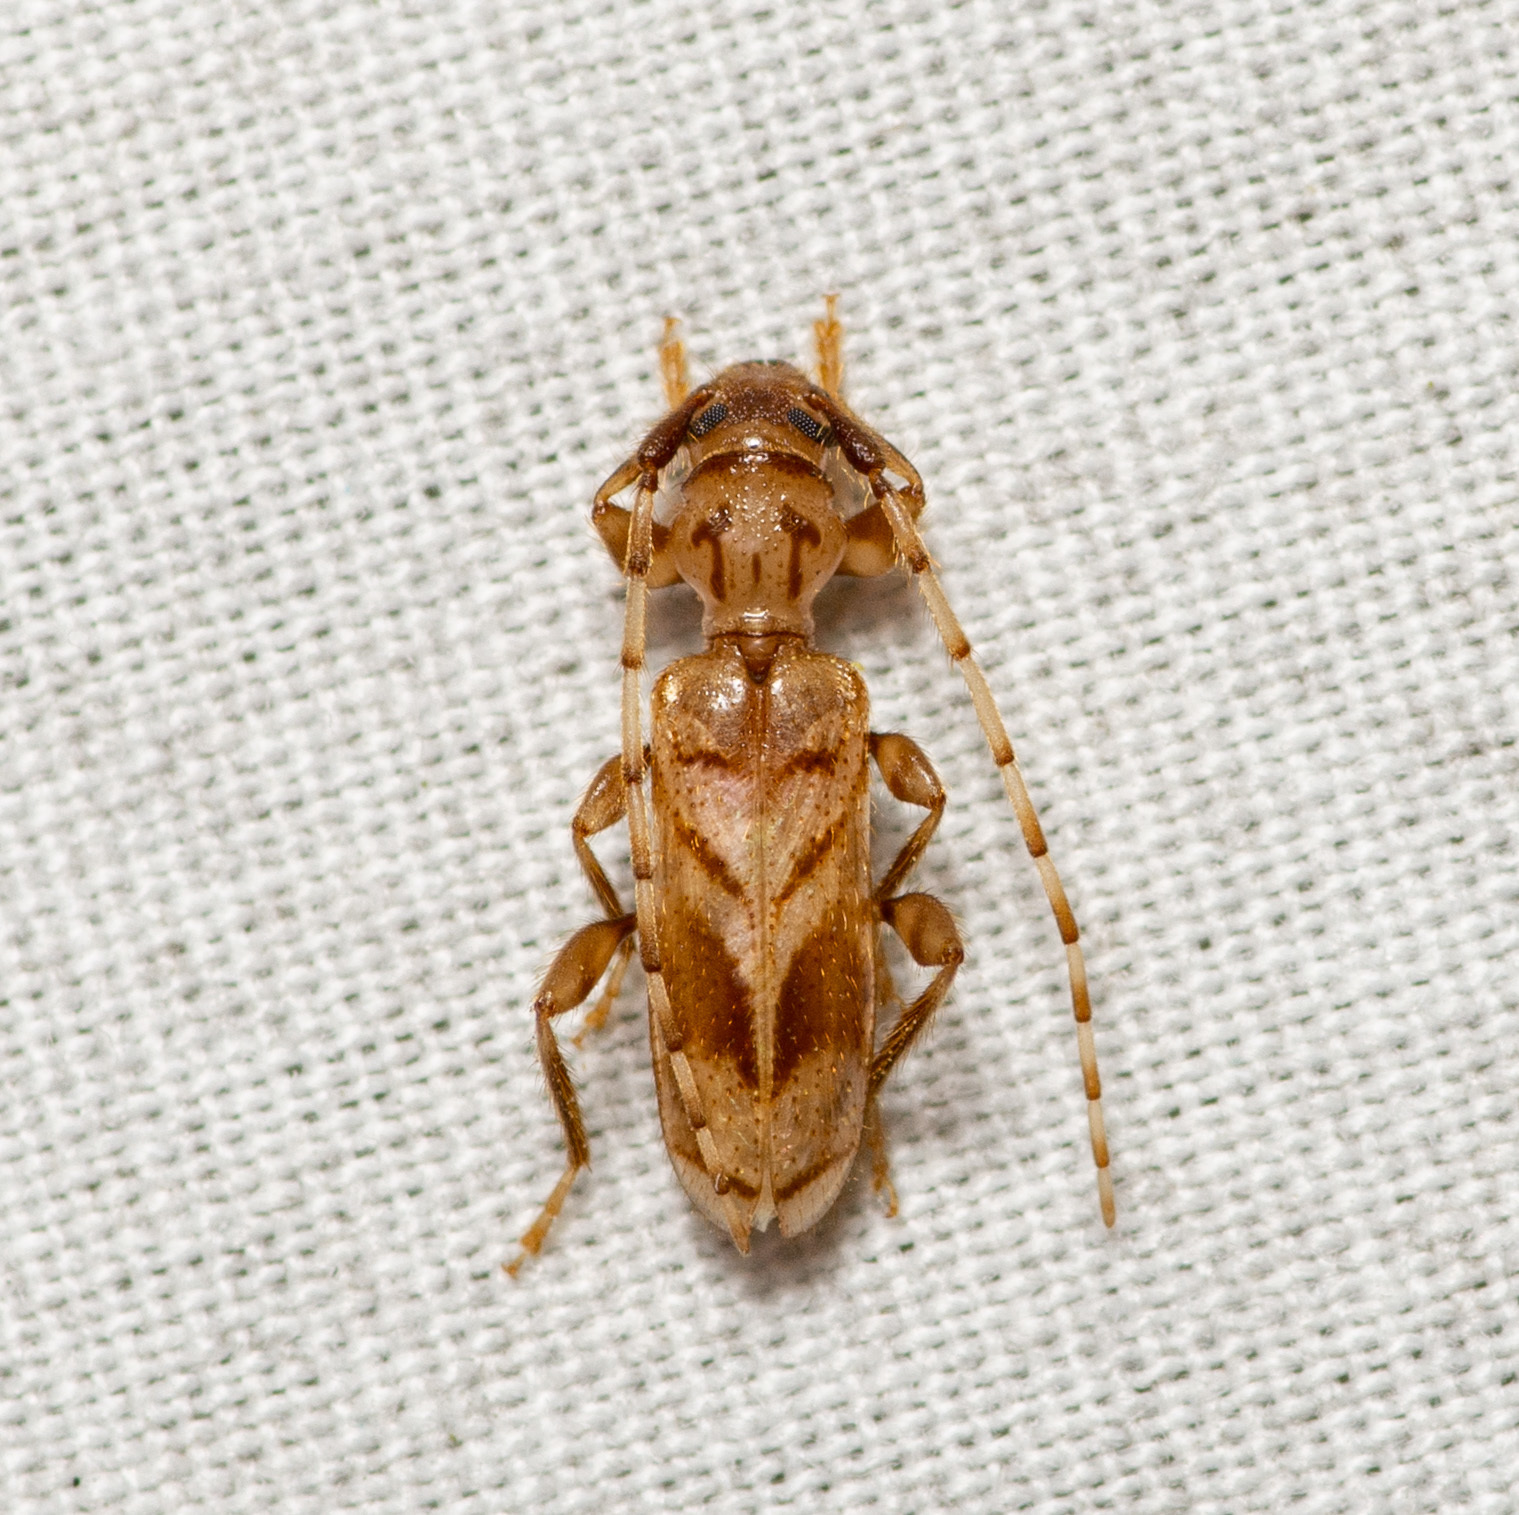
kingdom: Animalia
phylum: Arthropoda
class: Insecta
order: Coleoptera
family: Cerambycidae
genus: Obrium
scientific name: Obrium maculatum
